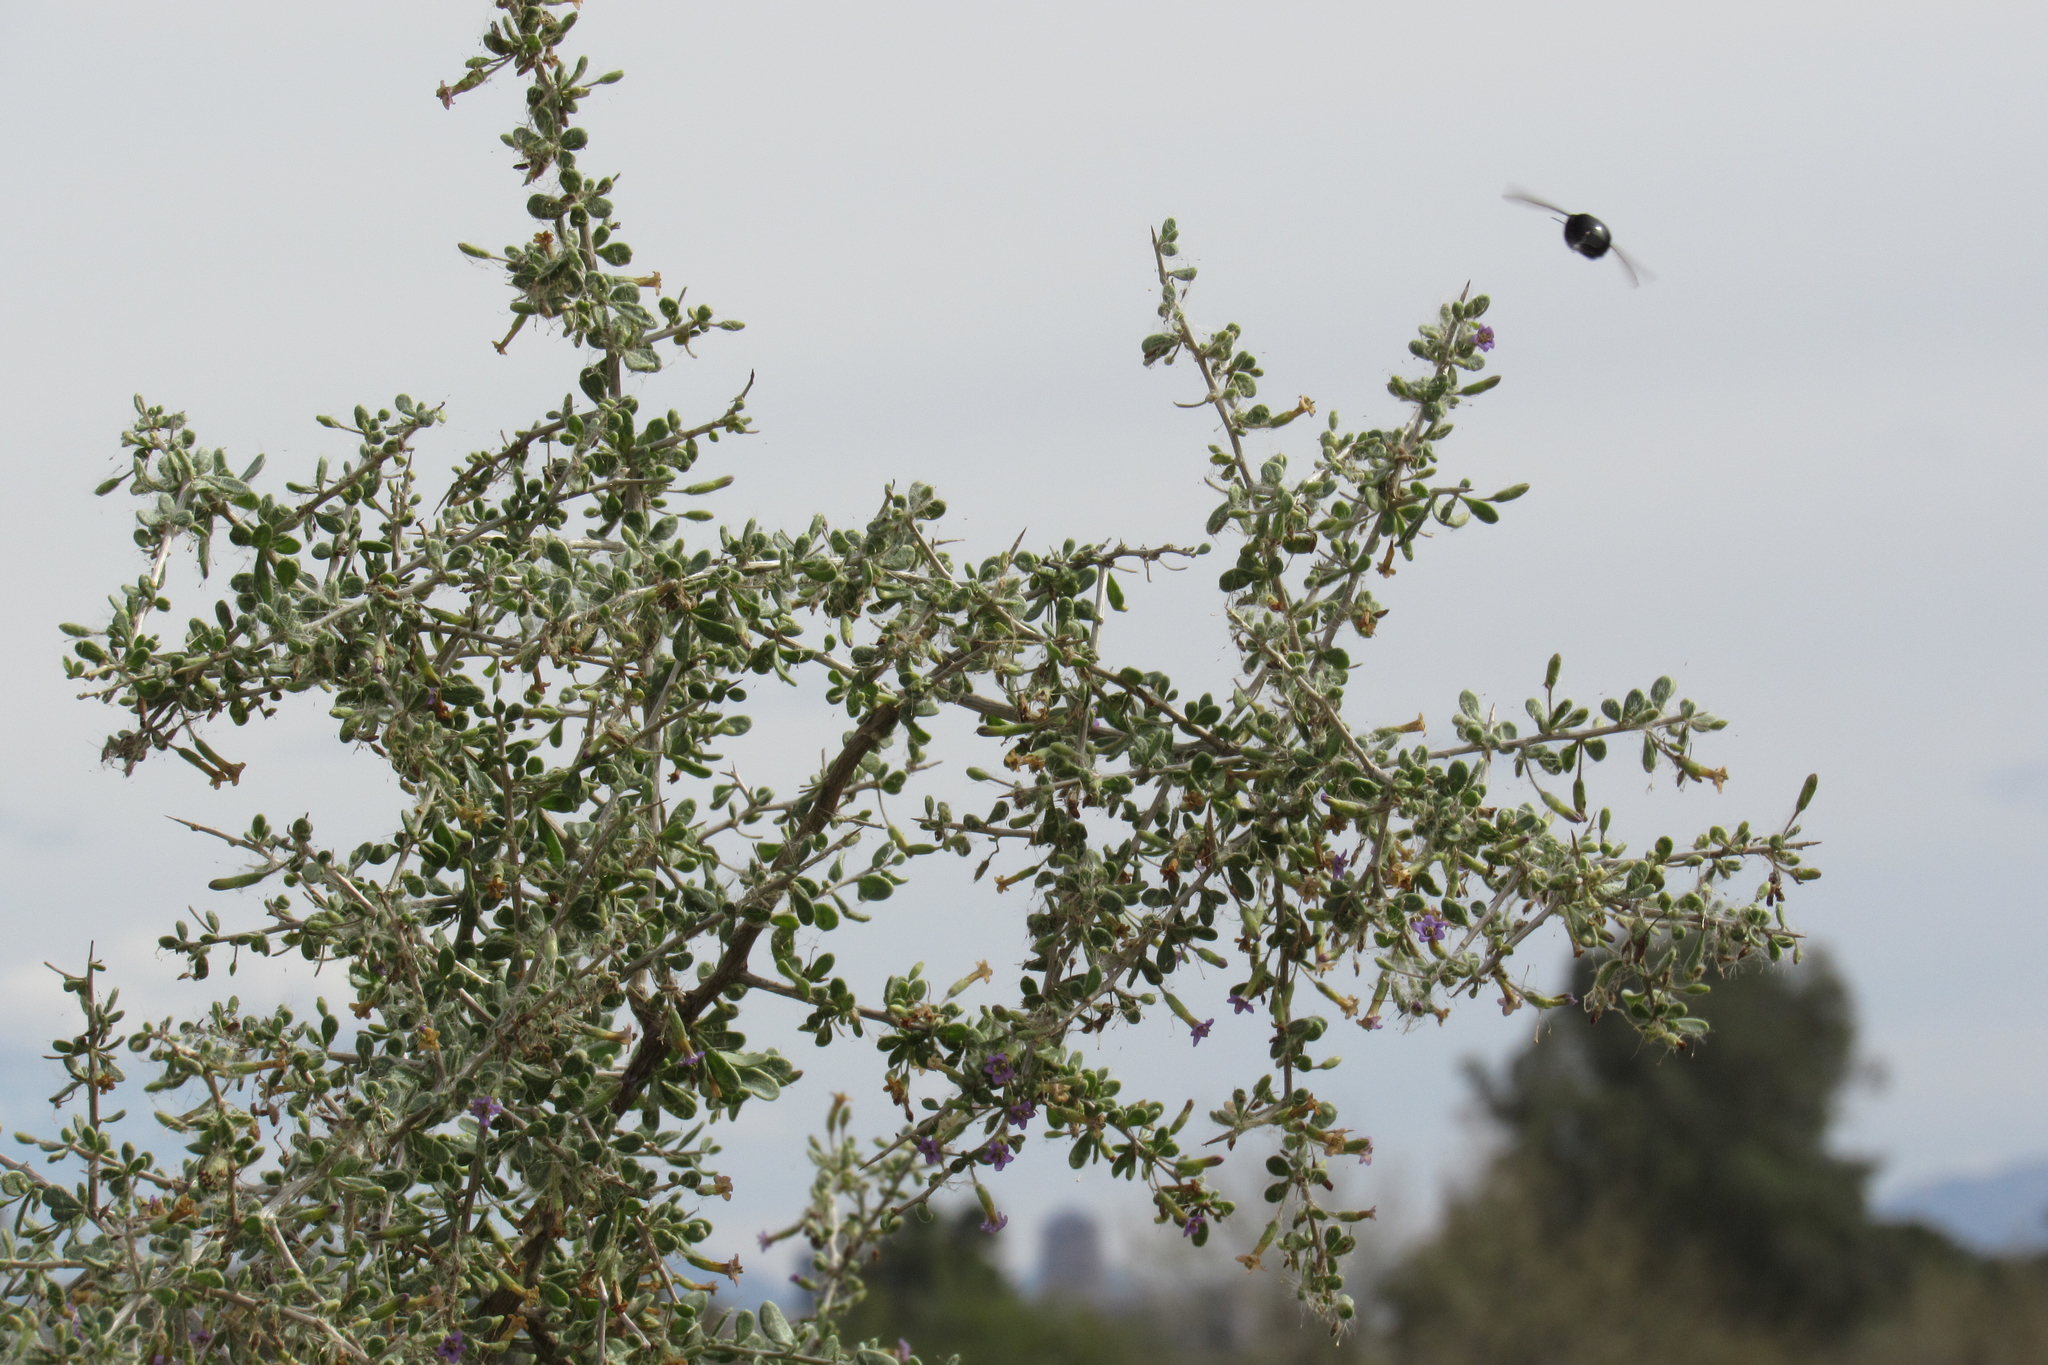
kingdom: Animalia
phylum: Arthropoda
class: Insecta
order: Hymenoptera
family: Apidae
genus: Xylocopa
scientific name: Xylocopa sonorina
